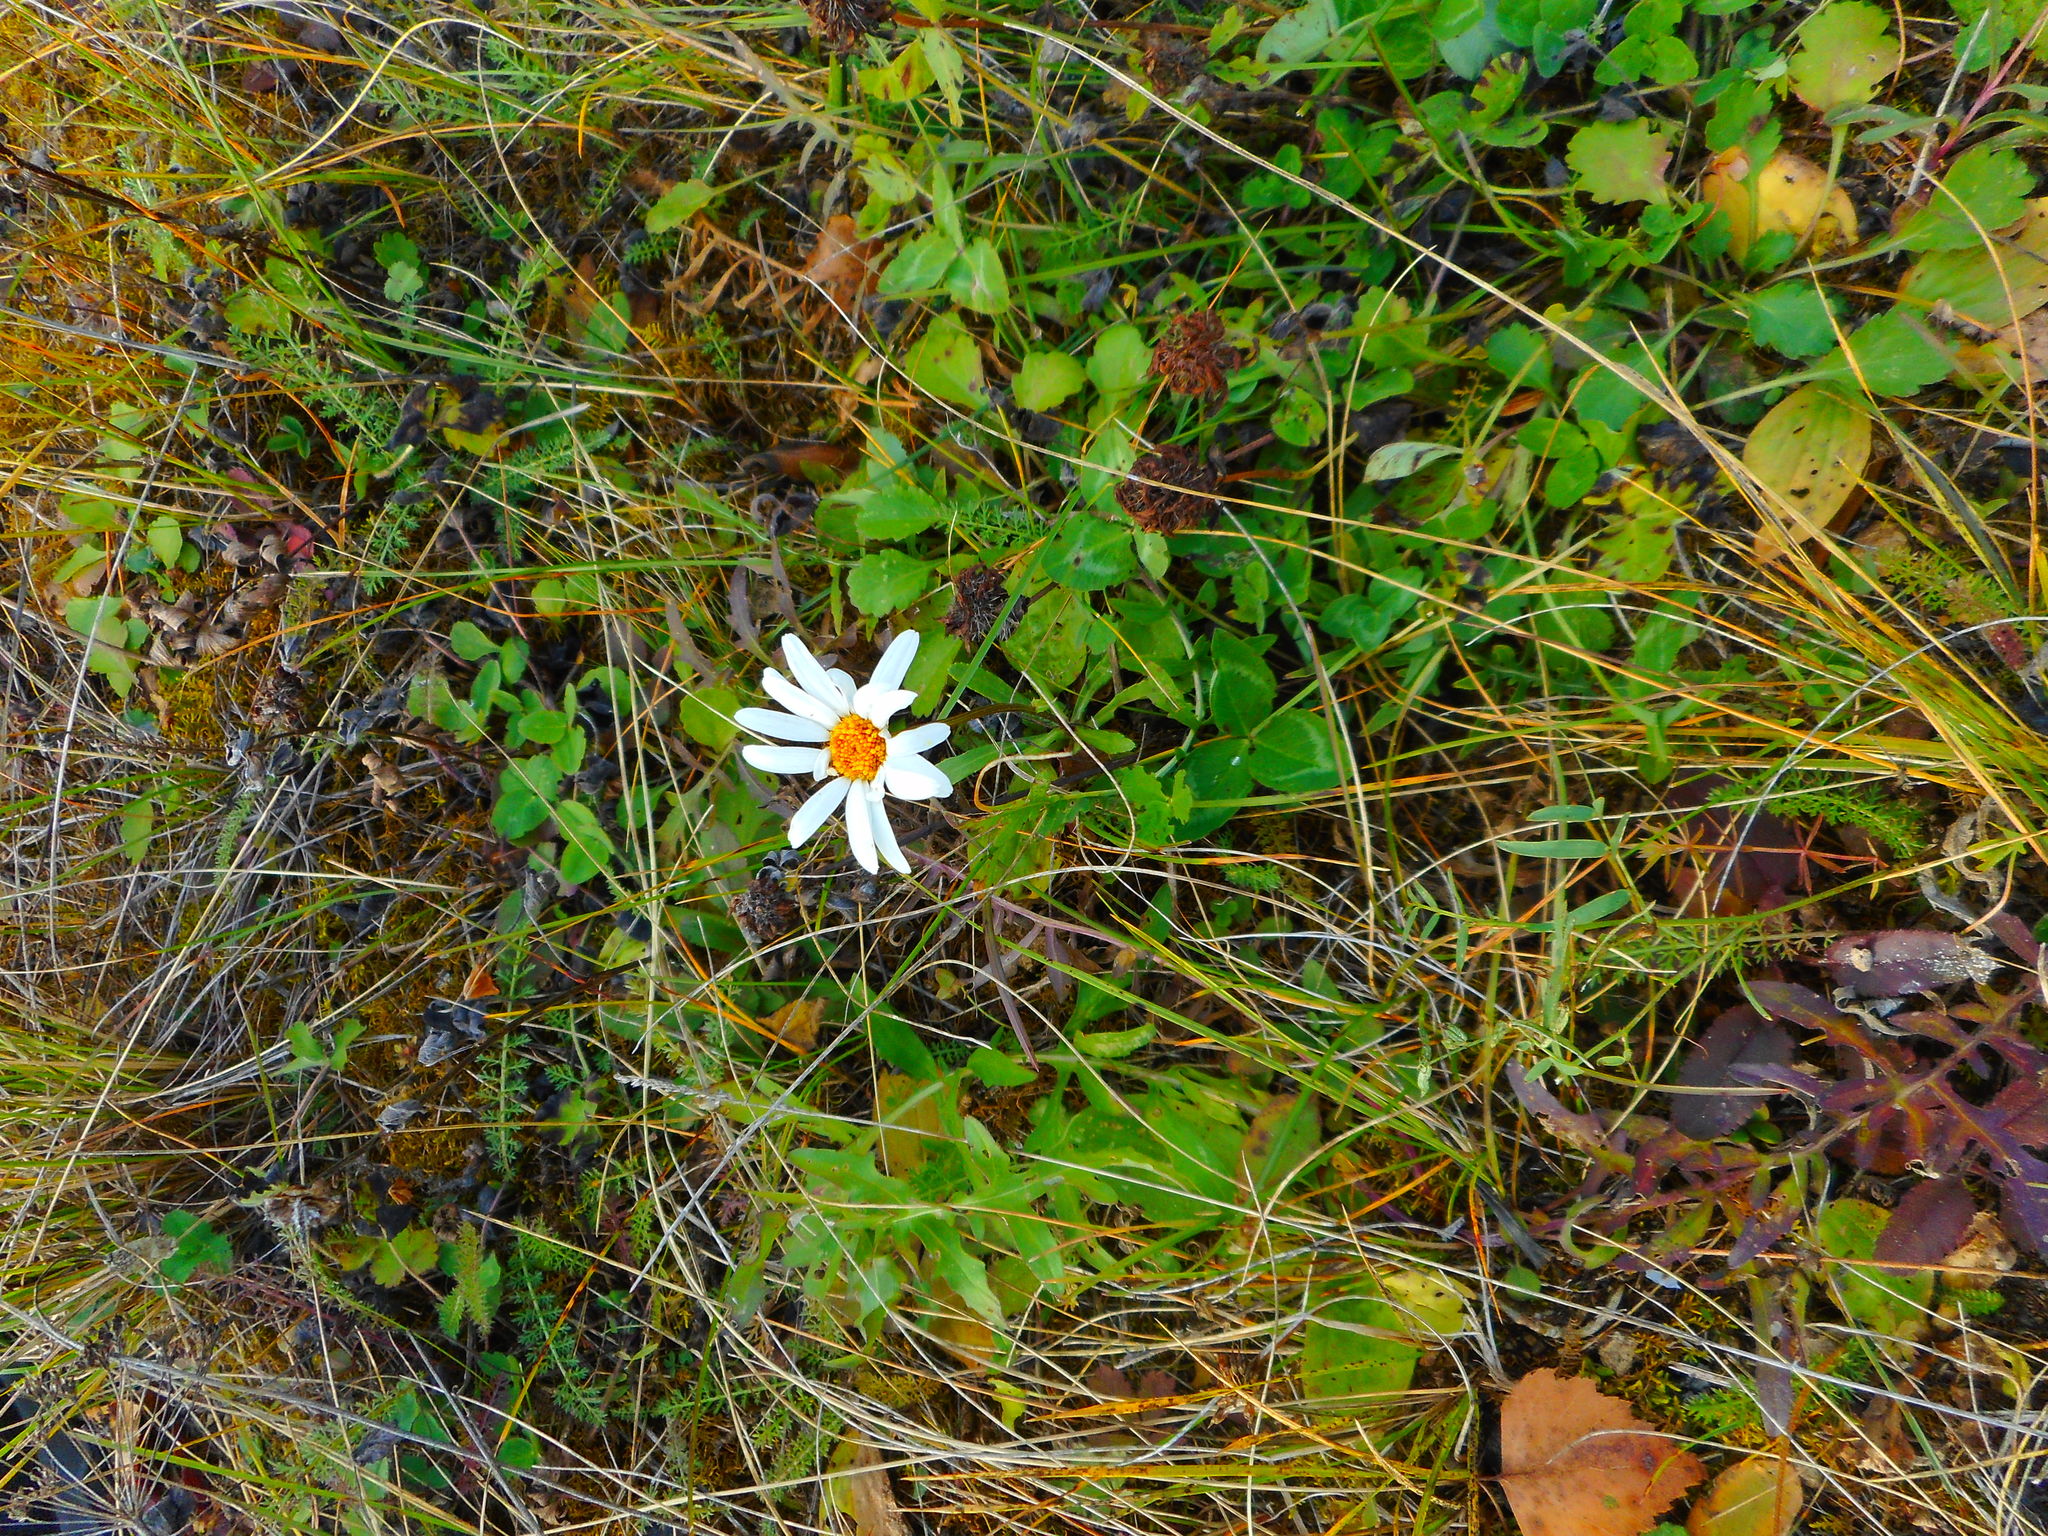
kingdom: Plantae
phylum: Tracheophyta
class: Magnoliopsida
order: Asterales
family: Asteraceae
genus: Leucanthemum
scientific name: Leucanthemum vulgare
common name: Oxeye daisy
